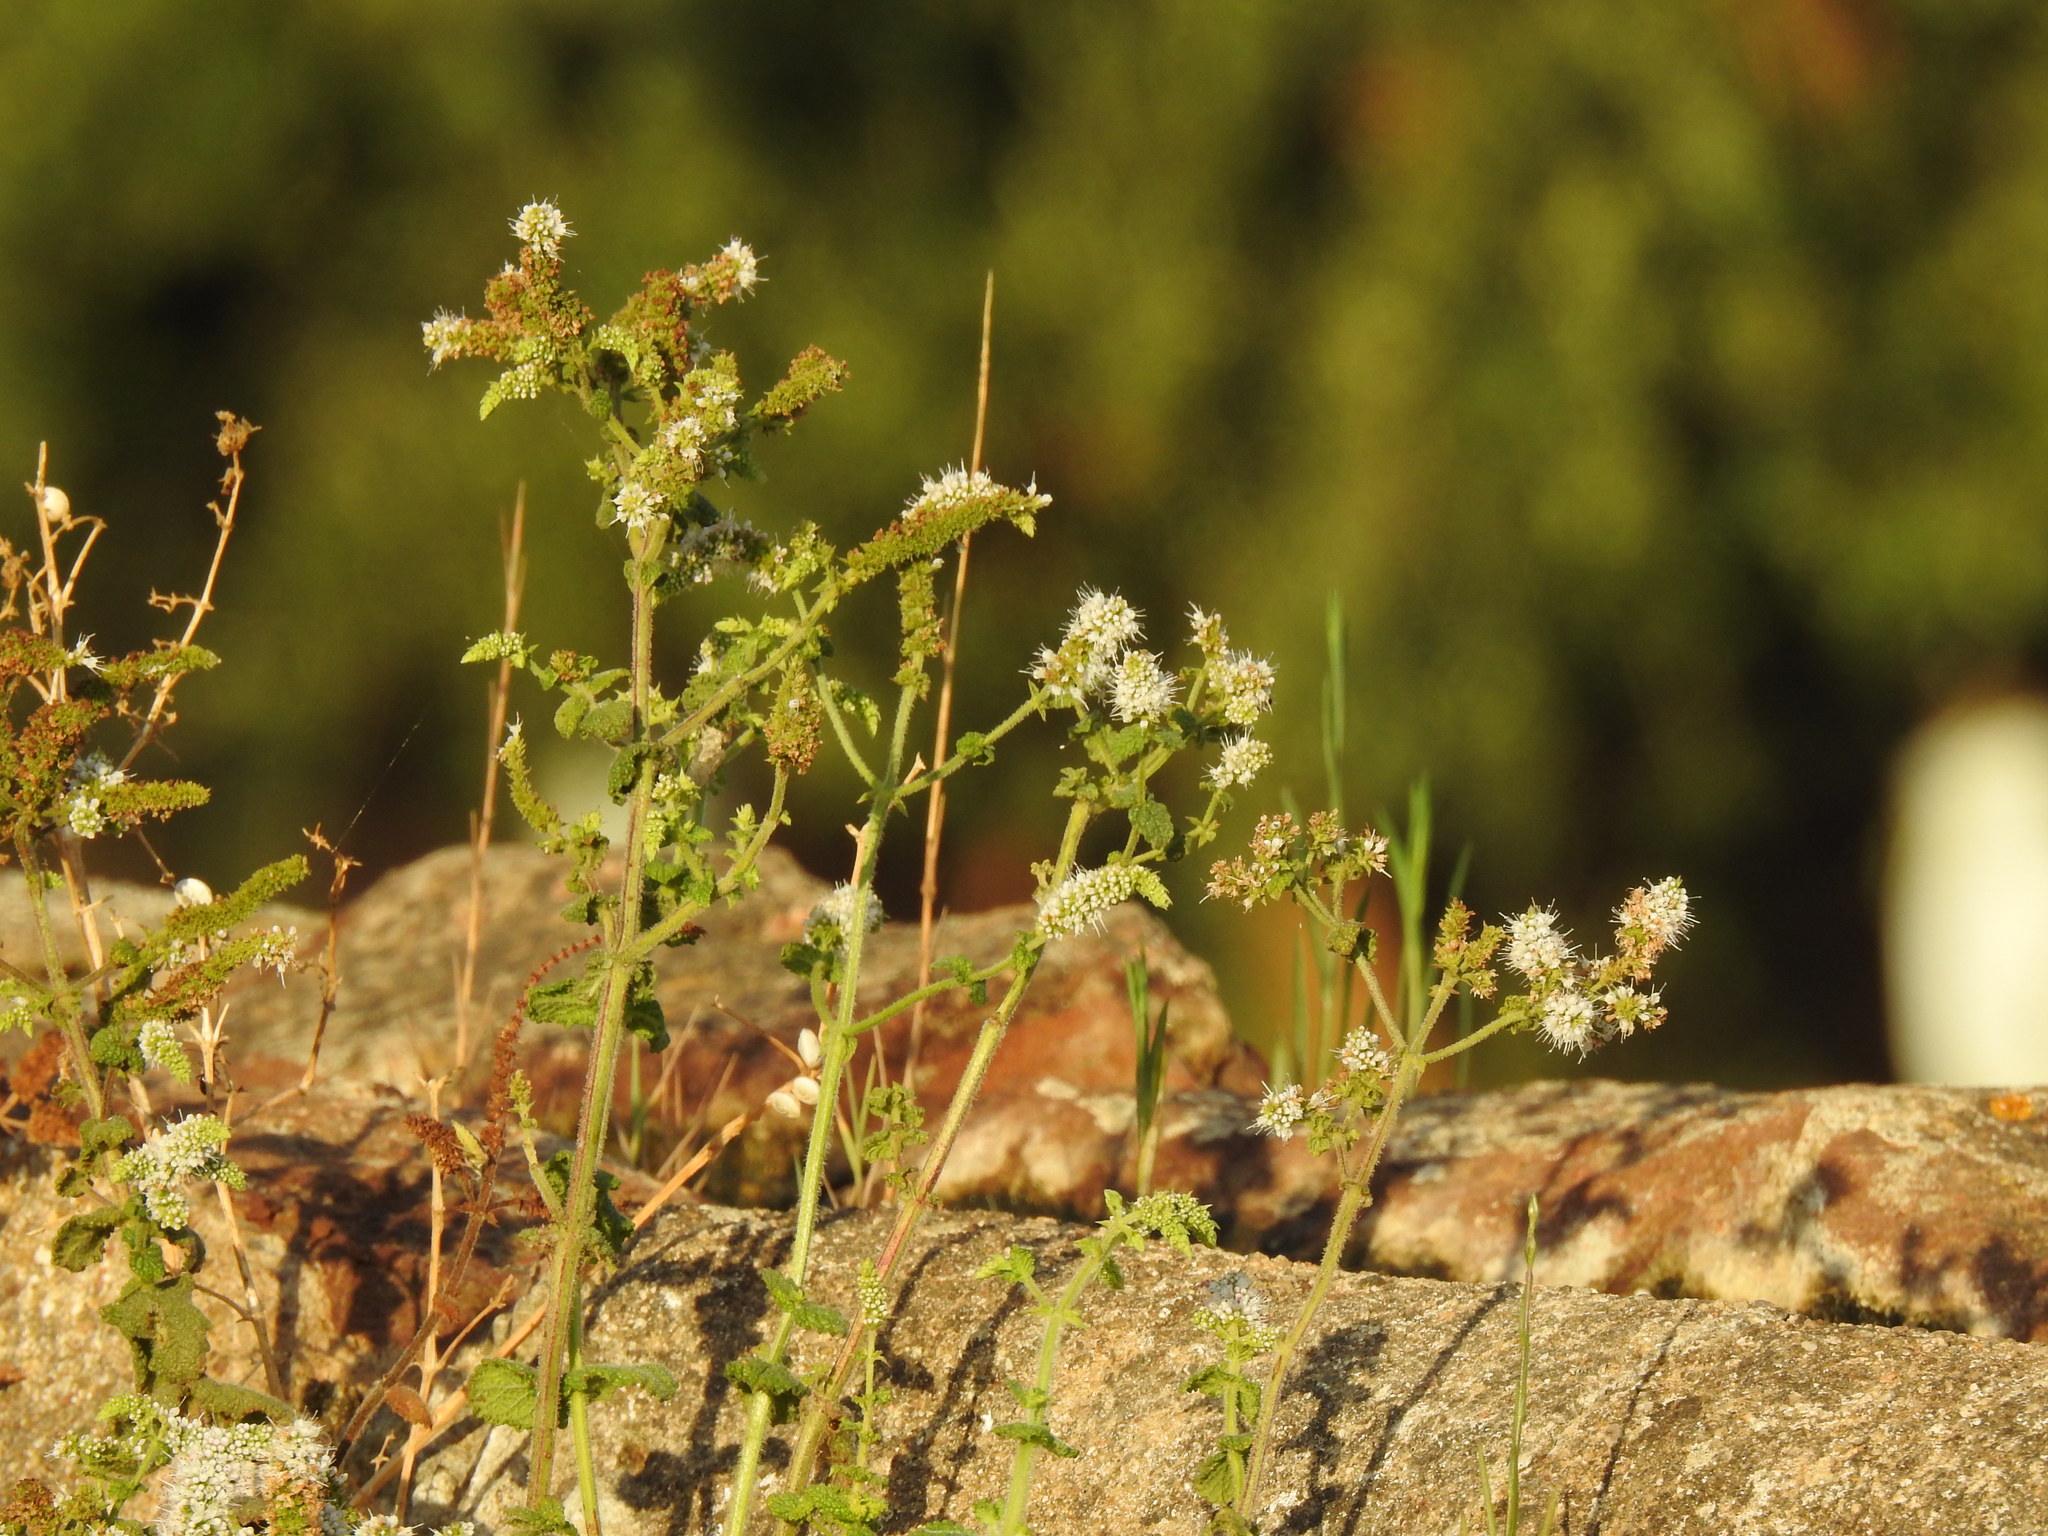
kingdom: Plantae
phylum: Tracheophyta
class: Magnoliopsida
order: Lamiales
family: Lamiaceae
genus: Mentha
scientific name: Mentha suaveolens
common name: Apple mint
